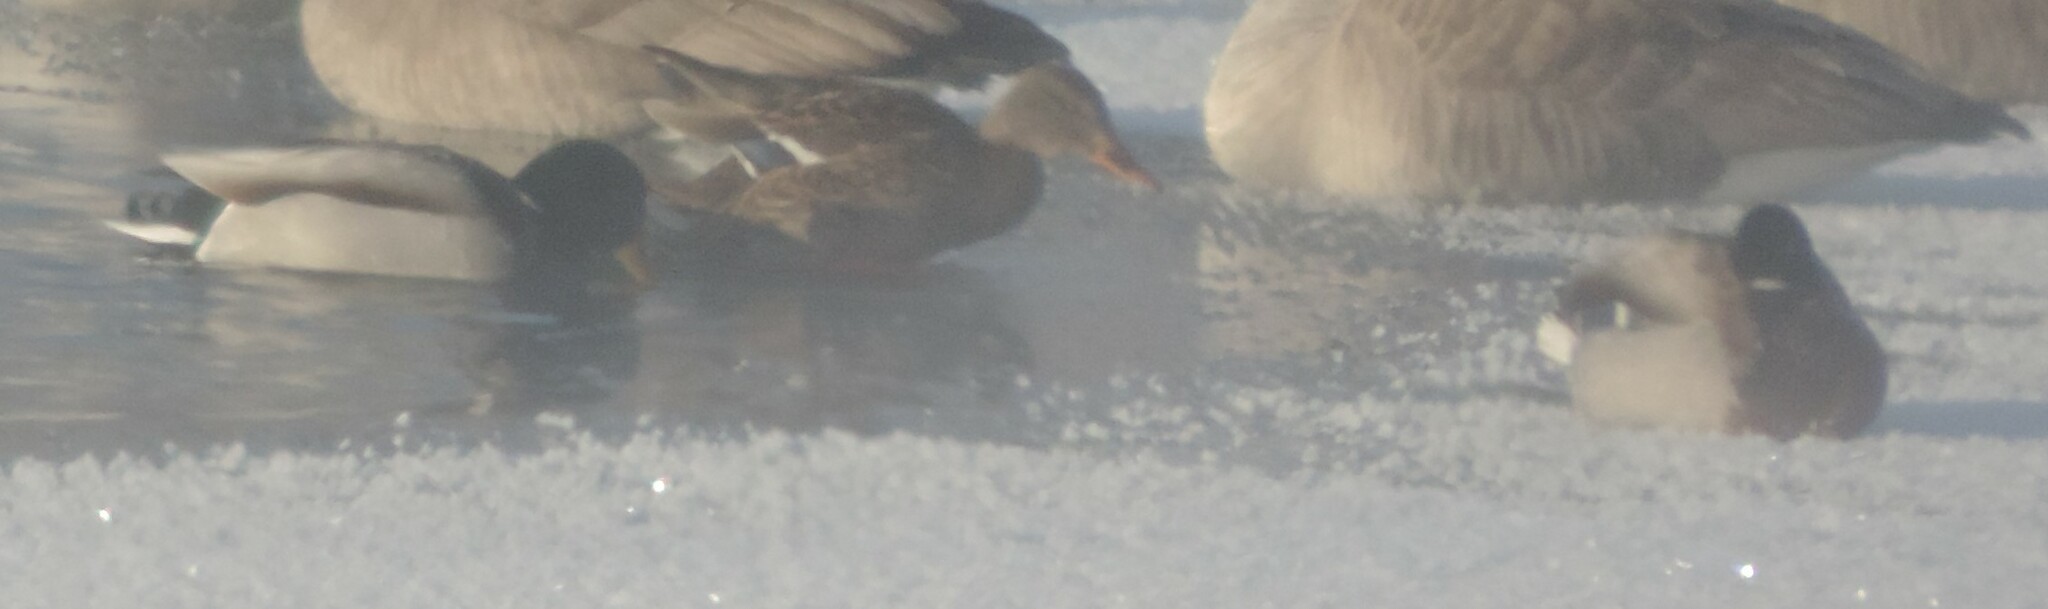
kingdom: Animalia
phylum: Chordata
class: Aves
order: Anseriformes
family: Anatidae
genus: Anas
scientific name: Anas platyrhynchos
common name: Mallard
